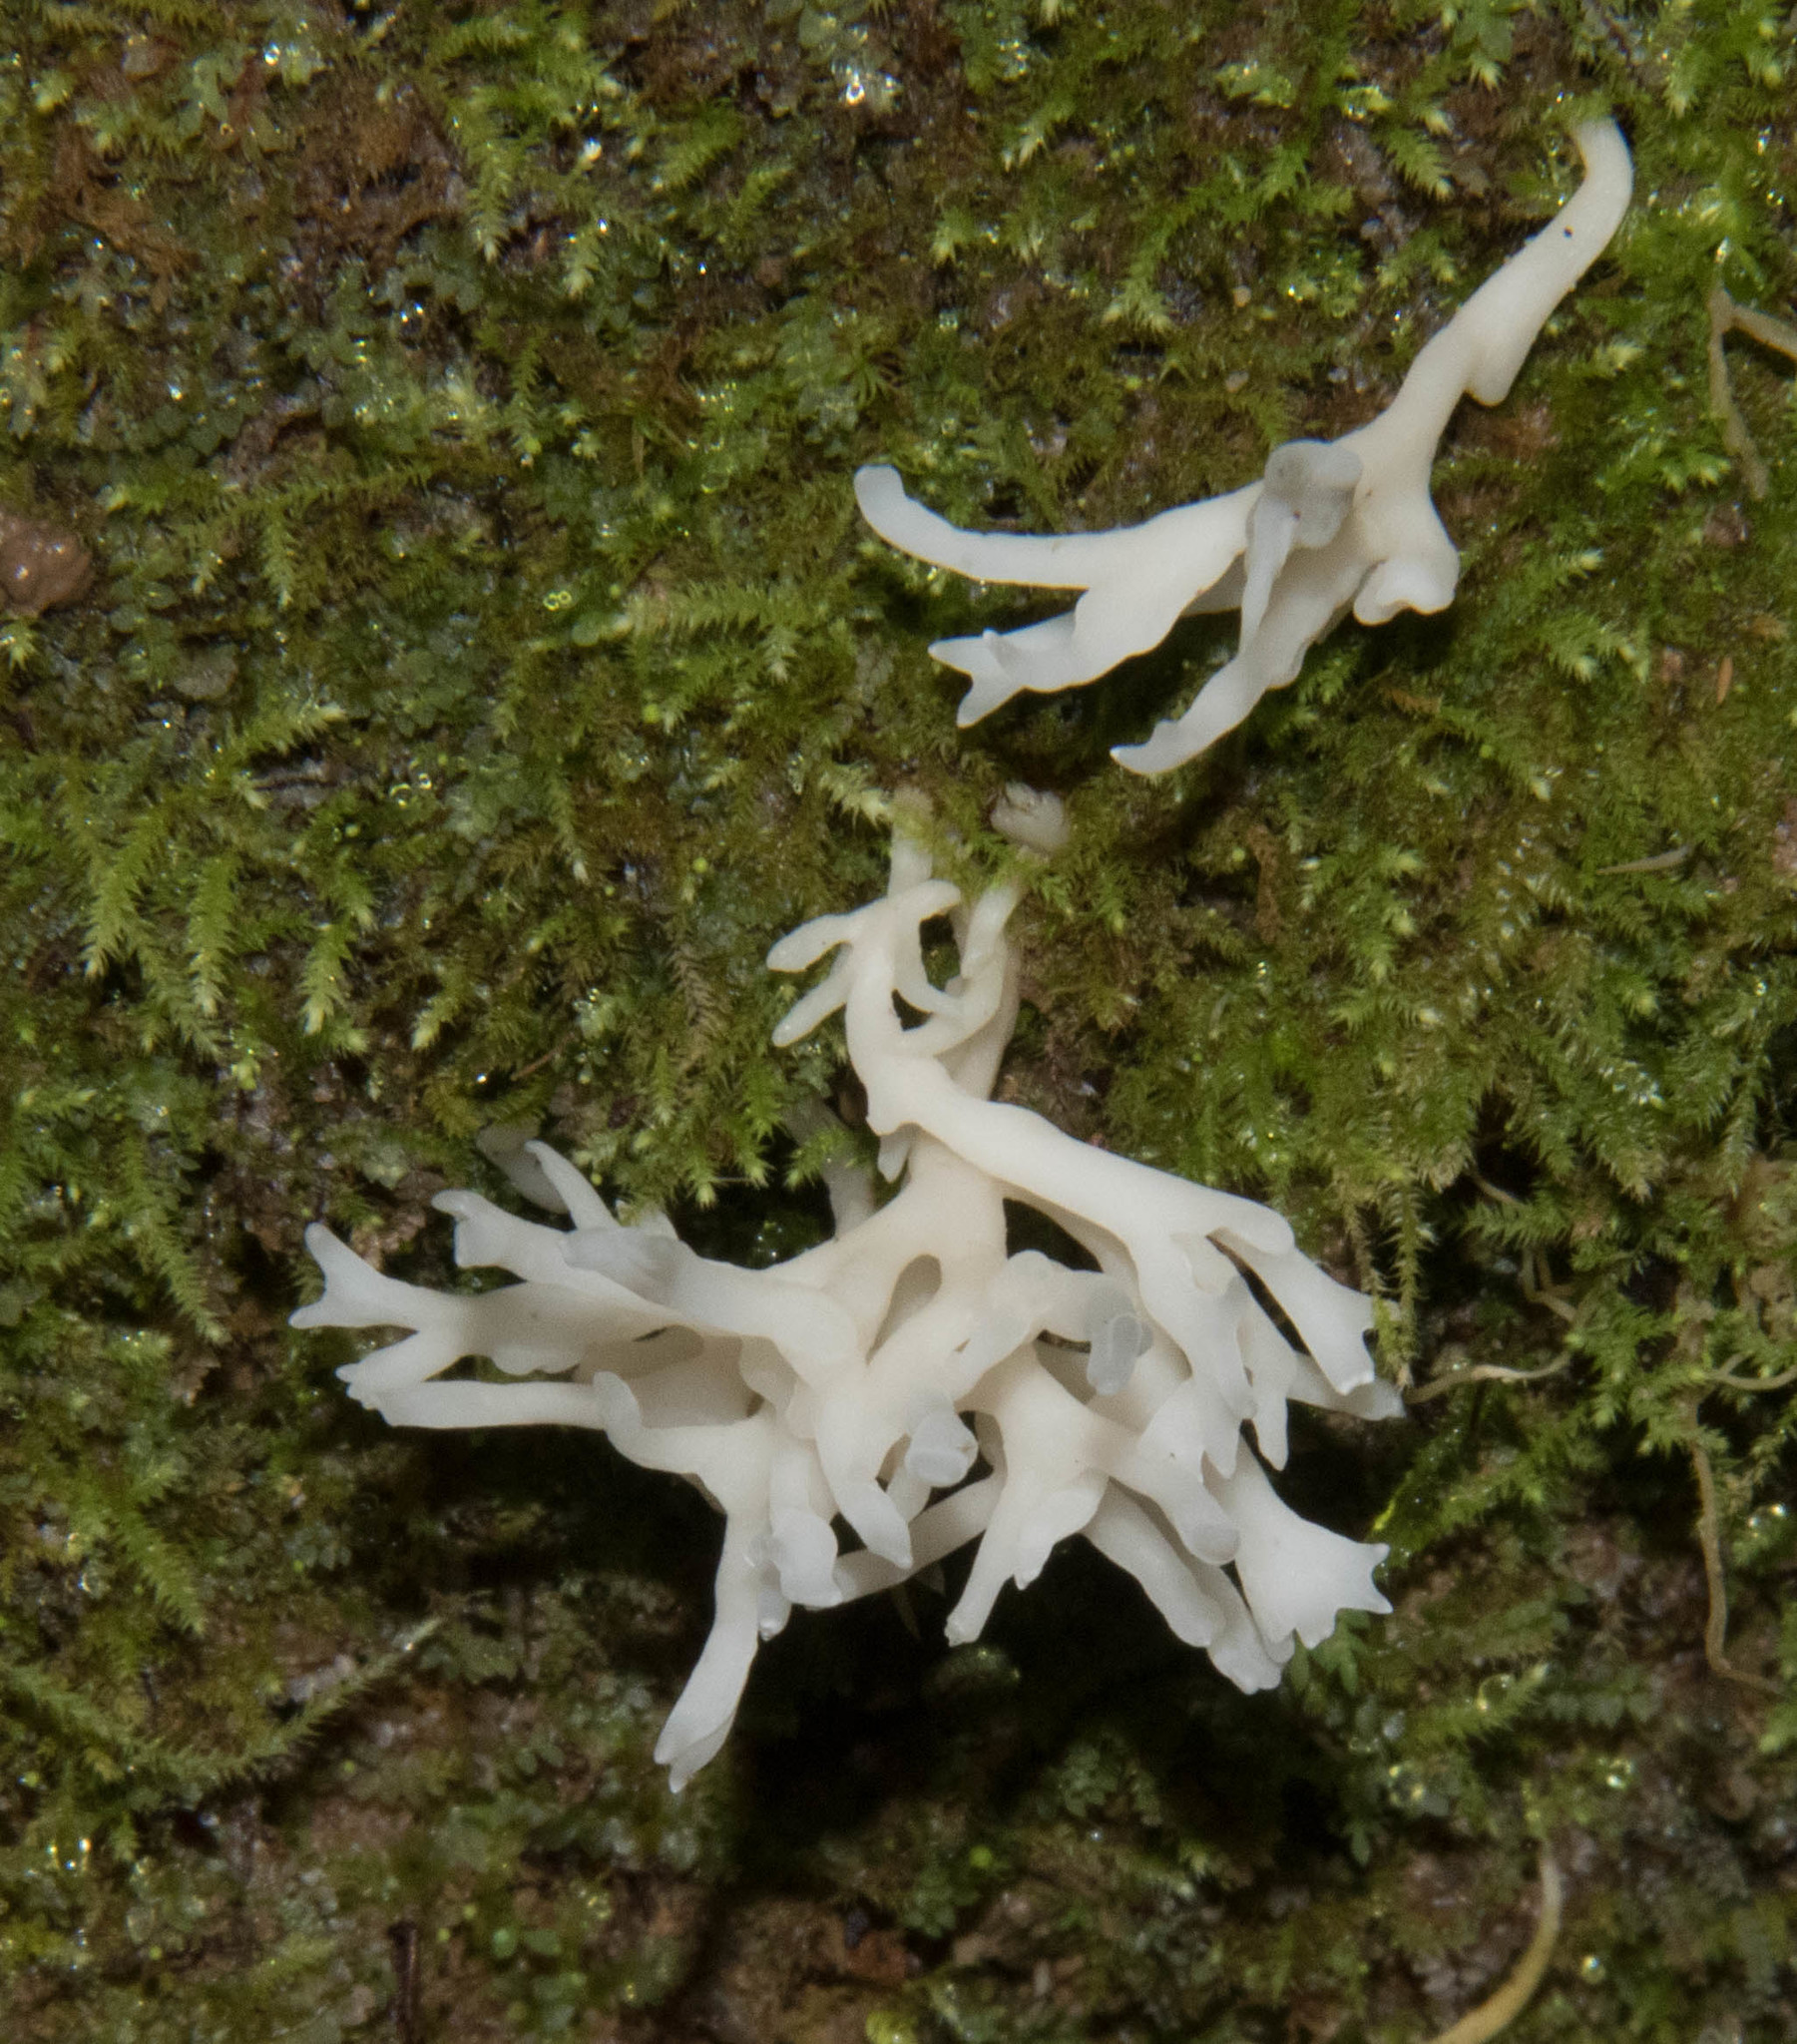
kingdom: Fungi
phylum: Basidiomycota
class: Agaricomycetes
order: Tremellodendropsidales
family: Tremellodendropsidaceae
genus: Tremellodendropsis
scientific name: Tremellodendropsis tuberosa
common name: Ashen coral
